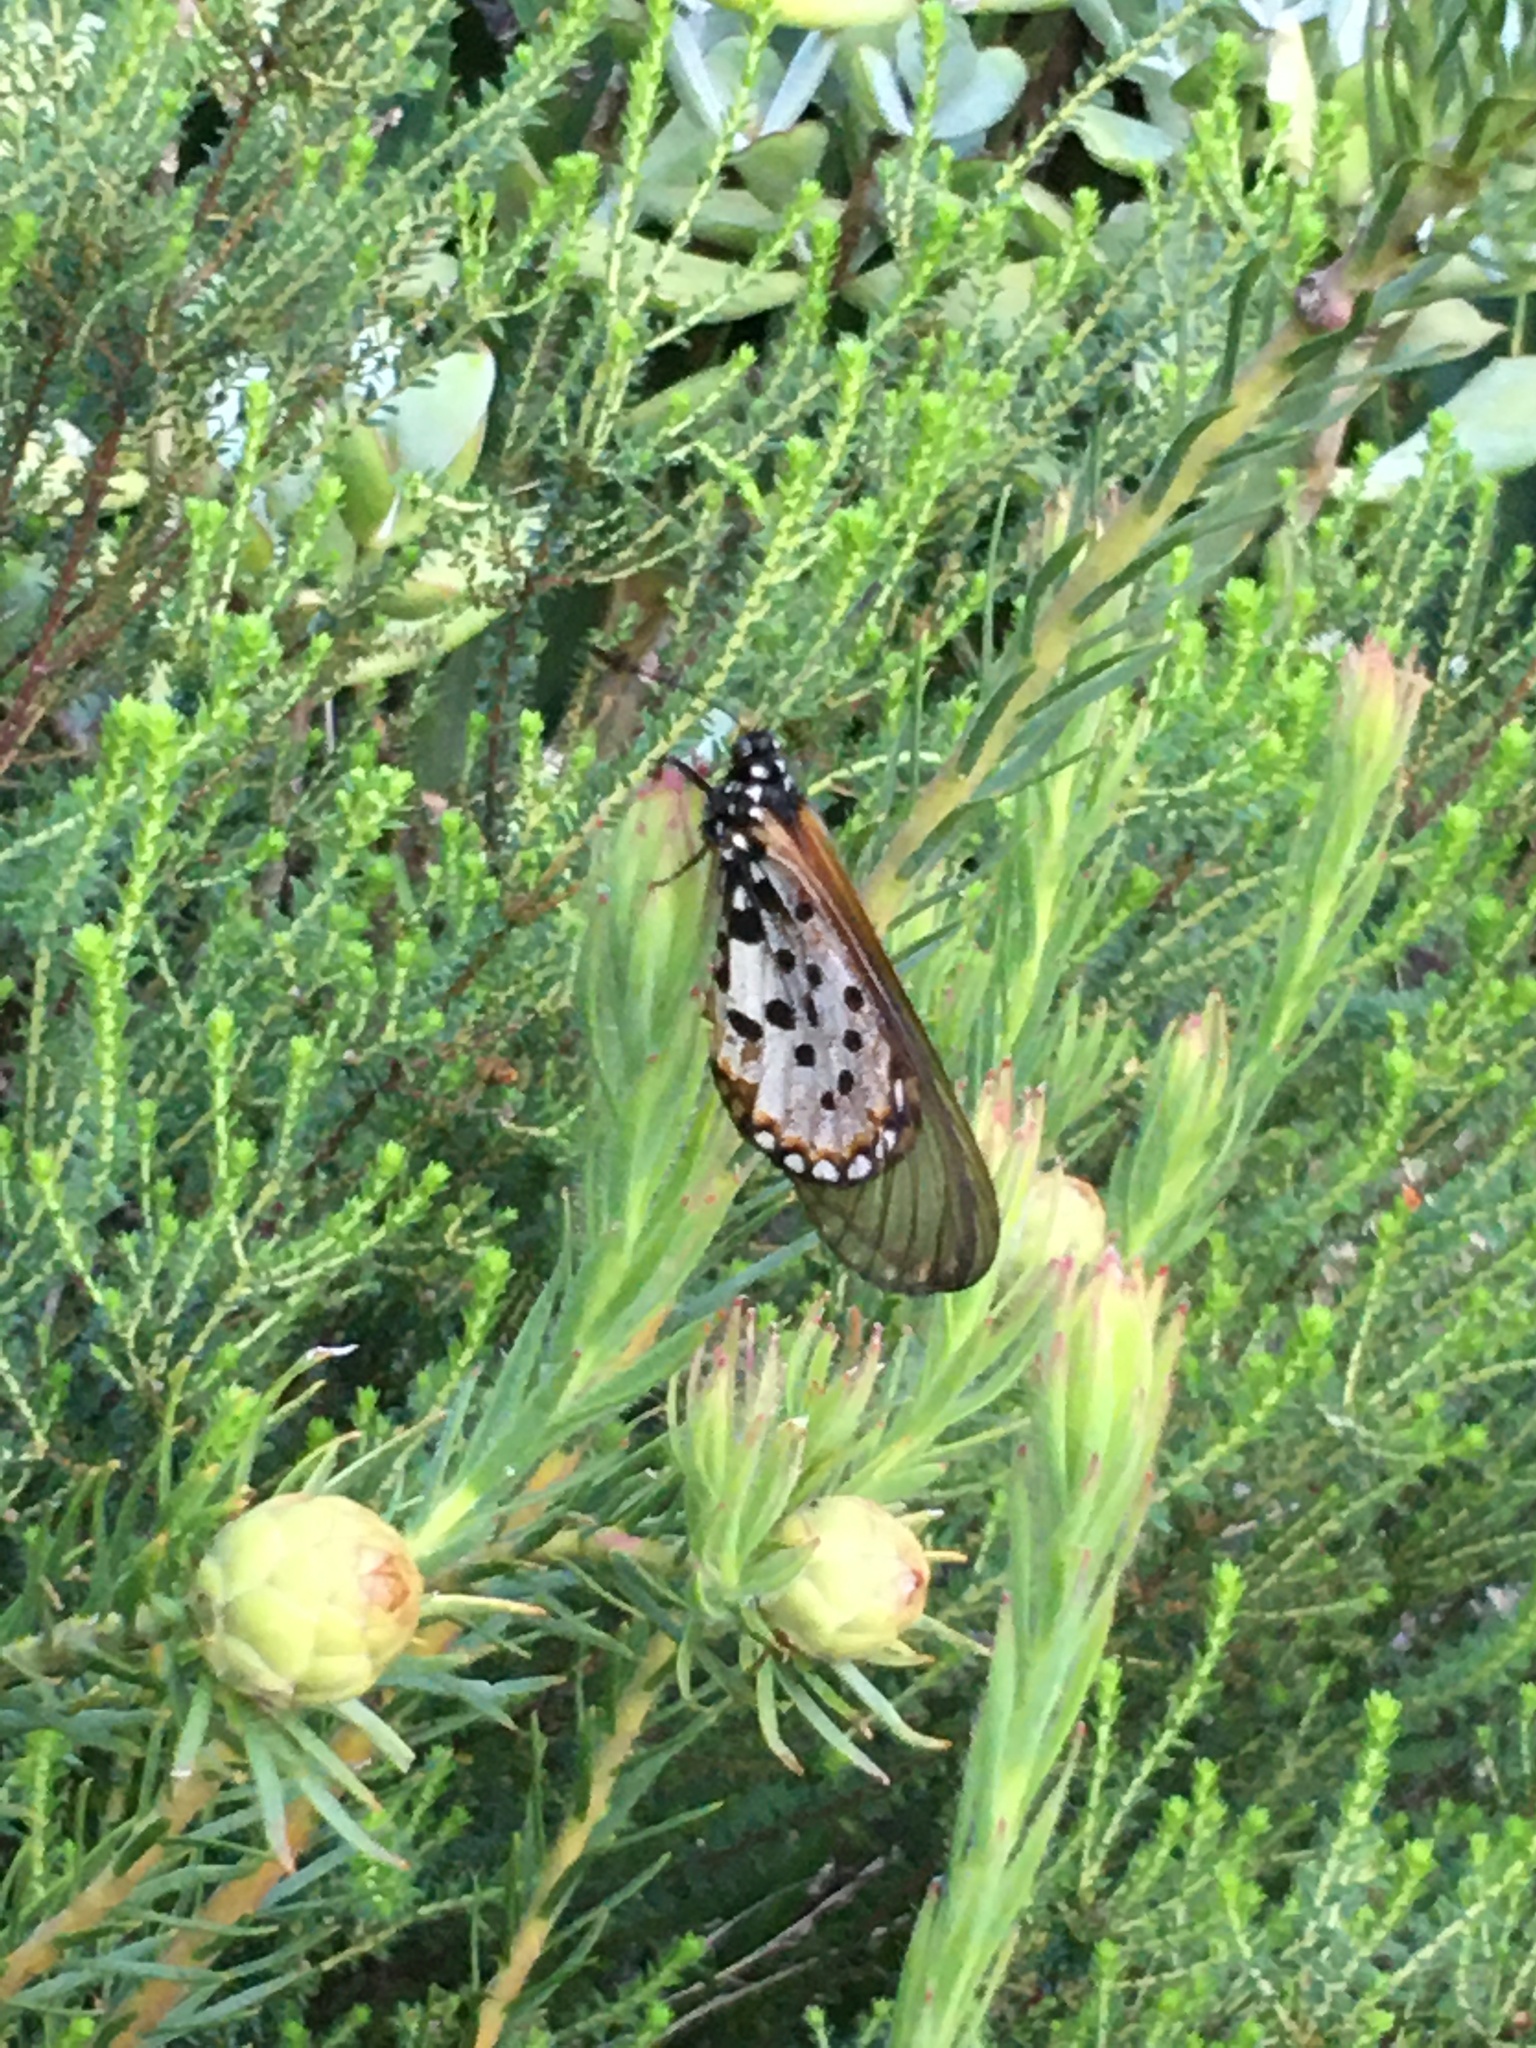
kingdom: Animalia
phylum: Arthropoda
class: Insecta
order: Lepidoptera
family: Nymphalidae
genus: Acraea
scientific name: Acraea horta
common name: Garden acraea
